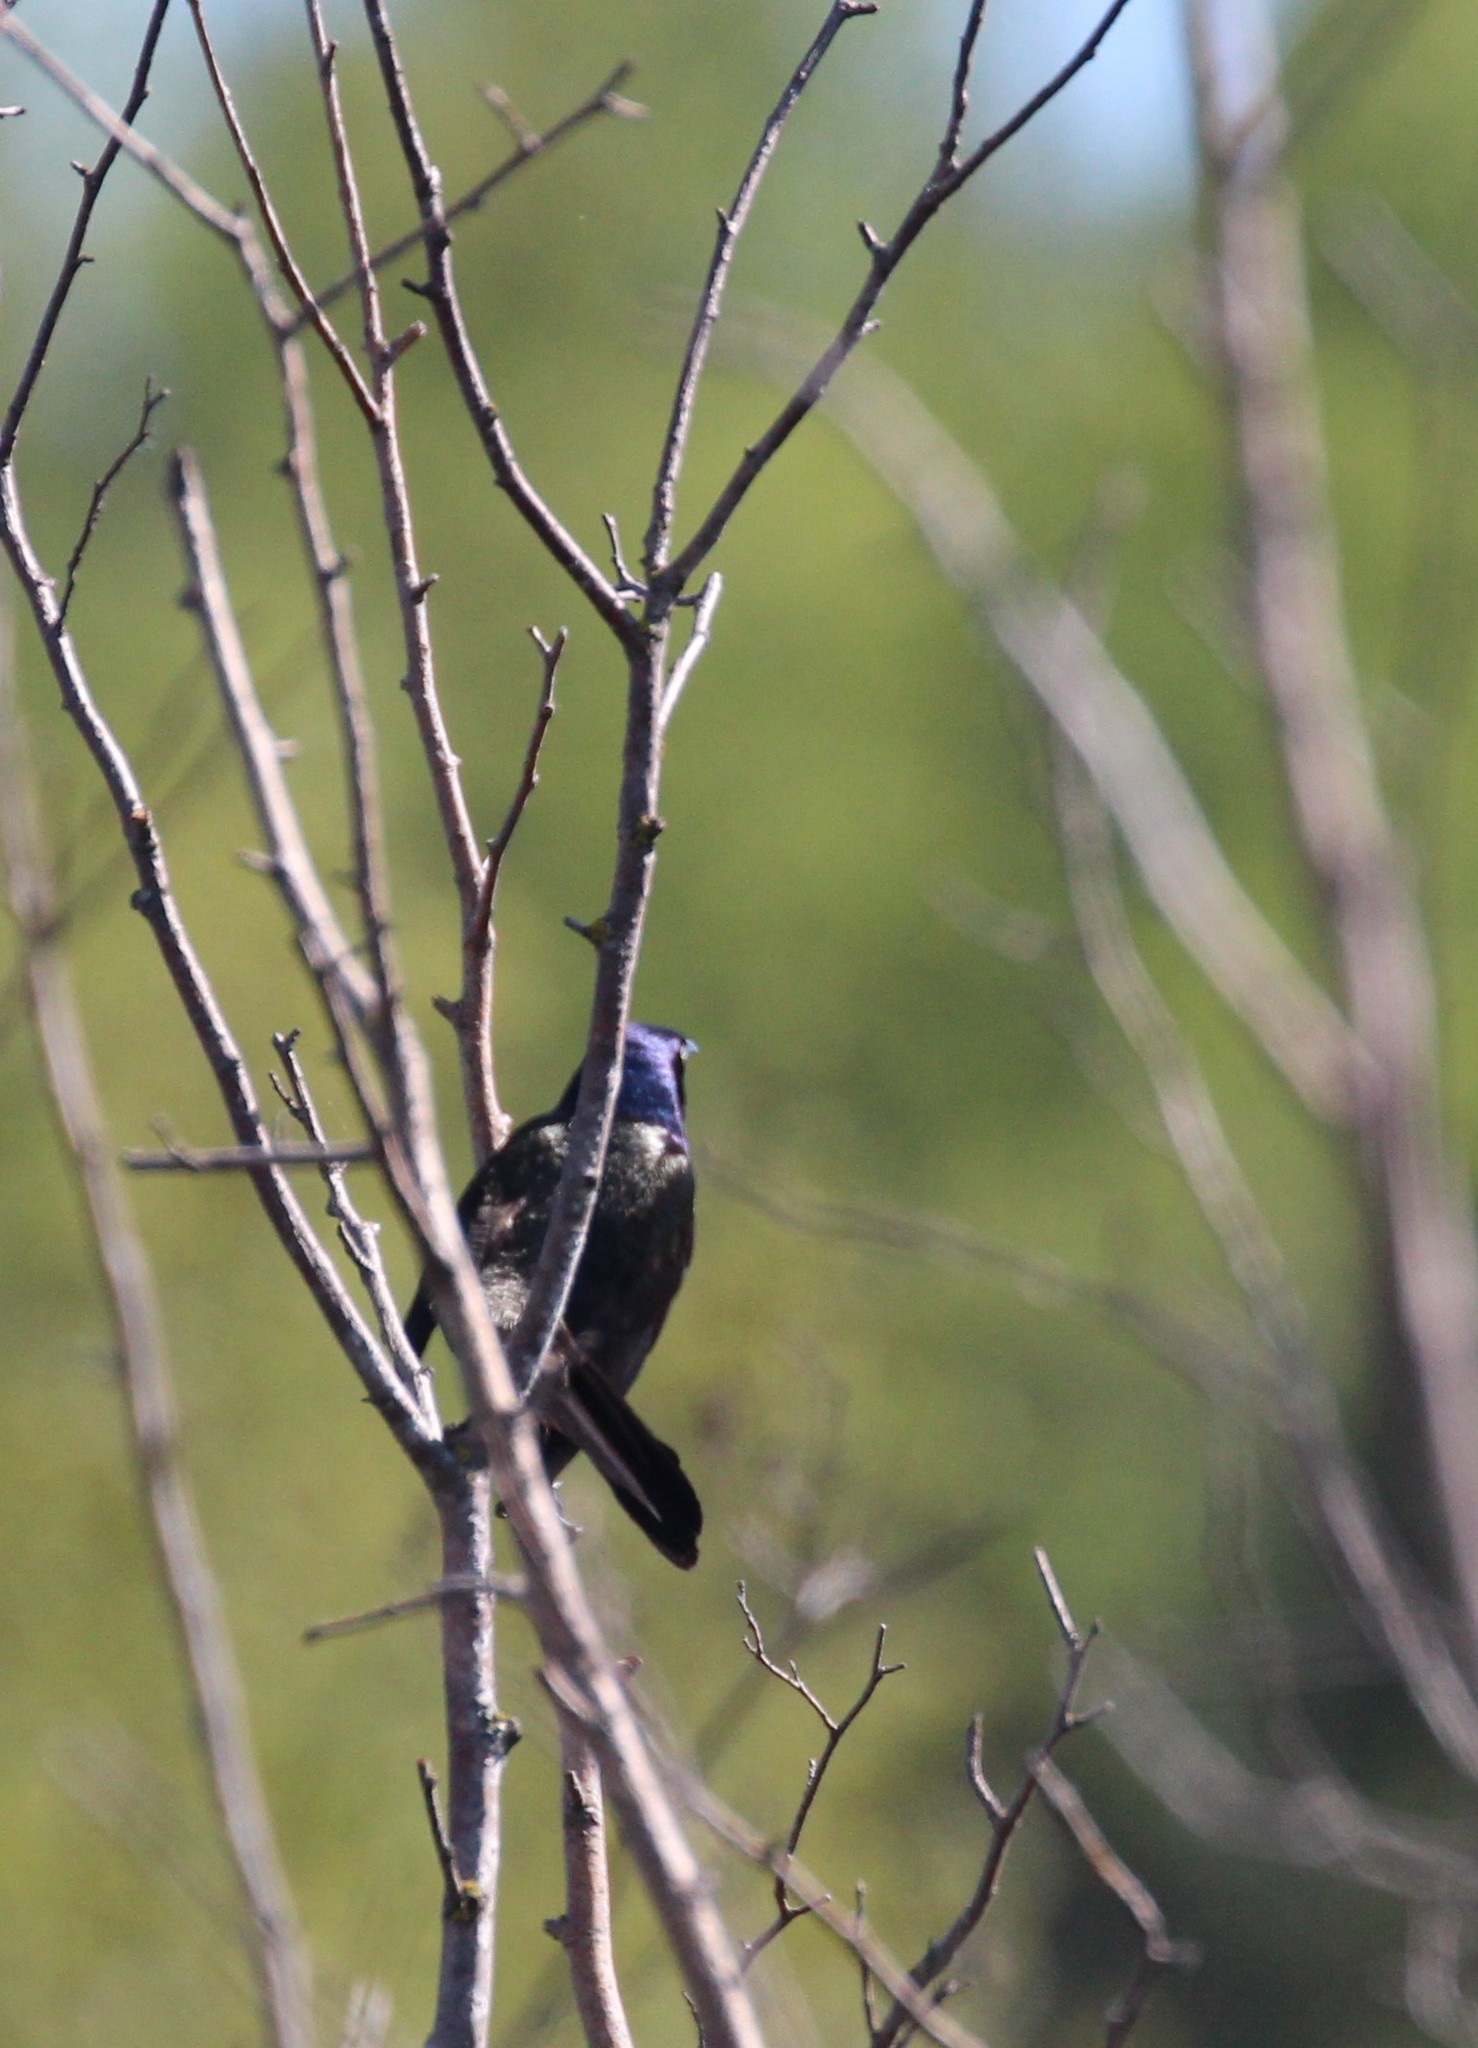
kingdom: Animalia
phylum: Chordata
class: Aves
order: Passeriformes
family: Icteridae
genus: Quiscalus
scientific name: Quiscalus quiscula
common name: Common grackle
